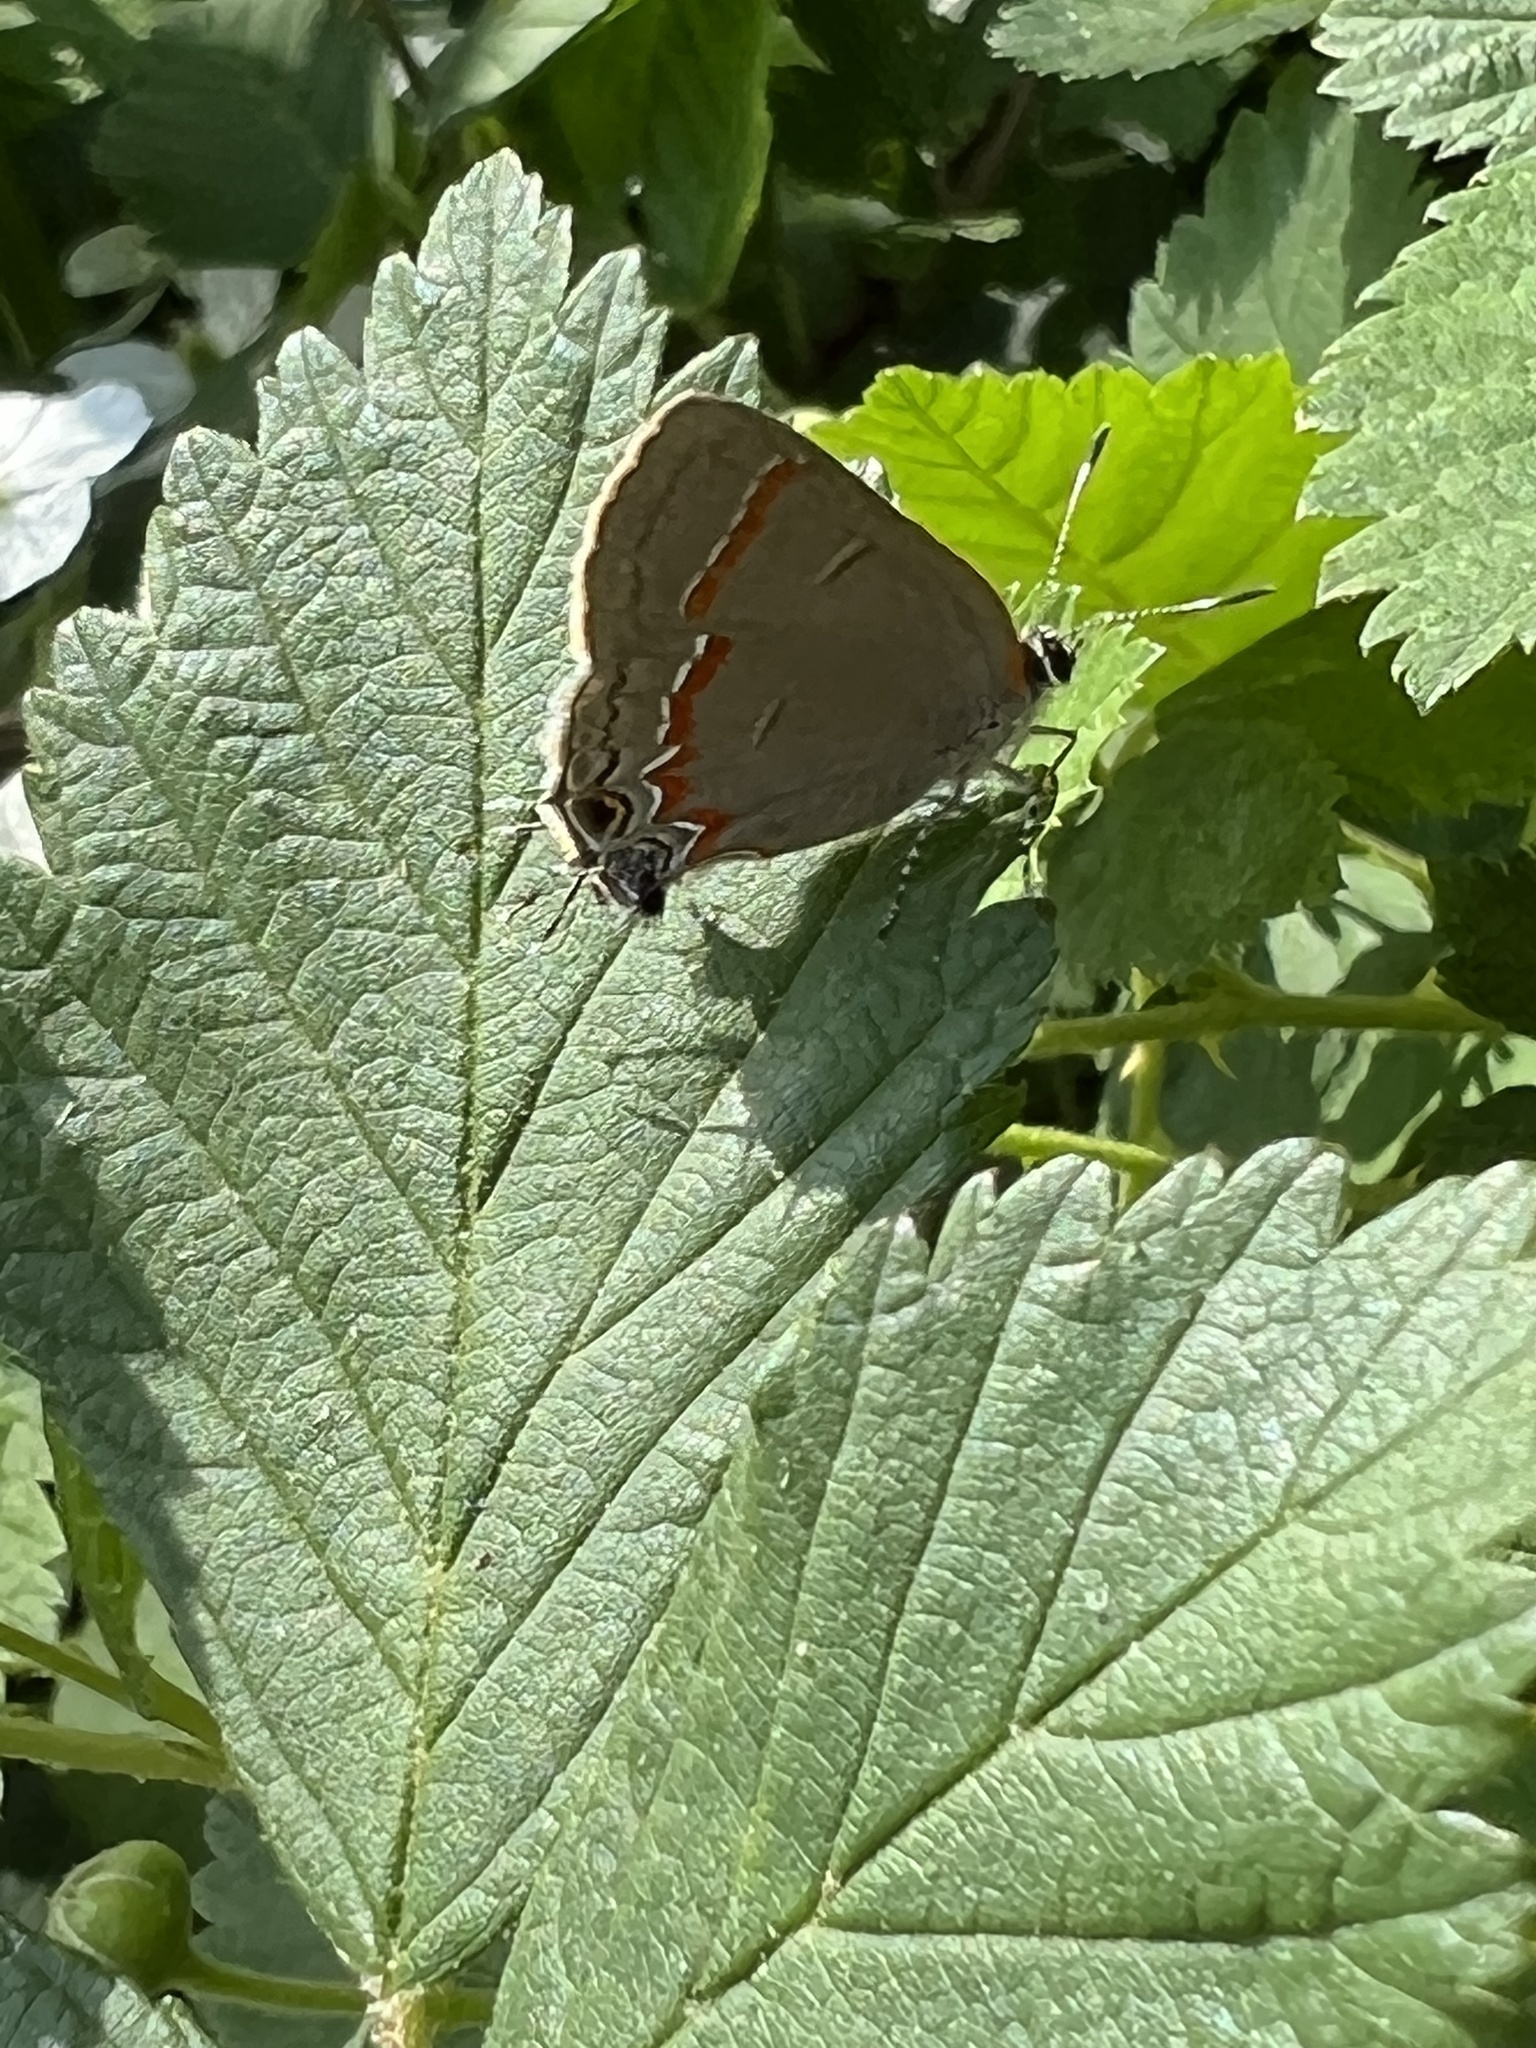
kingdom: Animalia
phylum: Arthropoda
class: Insecta
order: Lepidoptera
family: Lycaenidae
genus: Calycopis
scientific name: Calycopis cecrops
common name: Red-banded hairstreak
